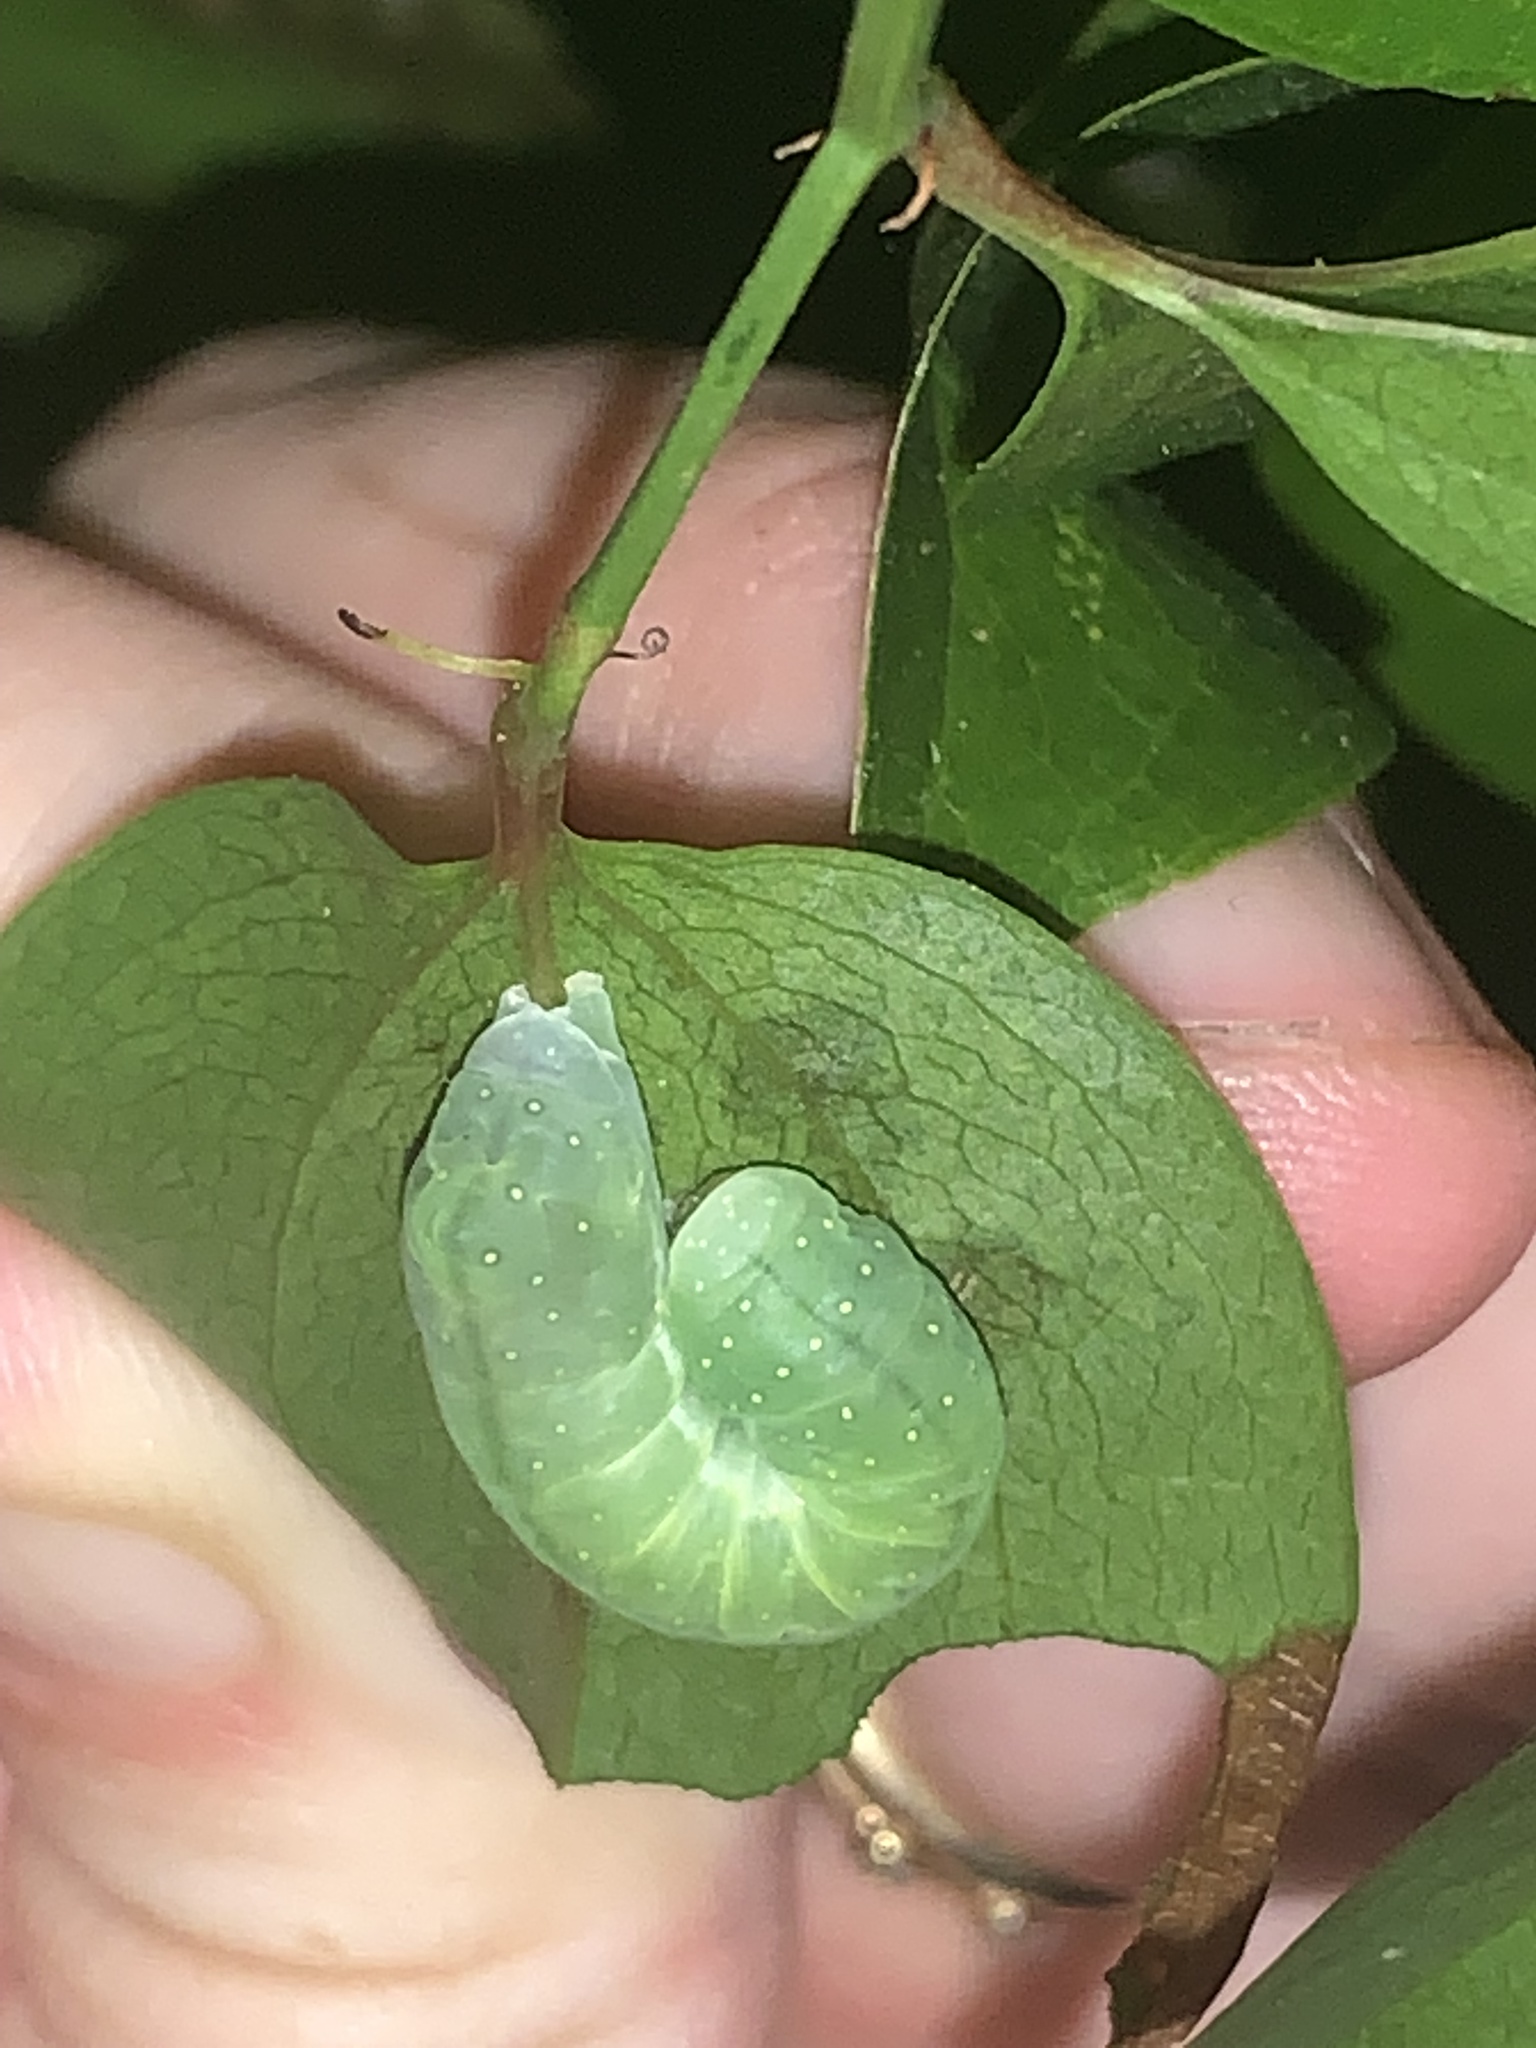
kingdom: Animalia
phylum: Arthropoda
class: Insecta
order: Lepidoptera
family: Noctuidae
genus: Phosphila
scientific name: Phosphila miselioides
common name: Spotted phosphila moth
